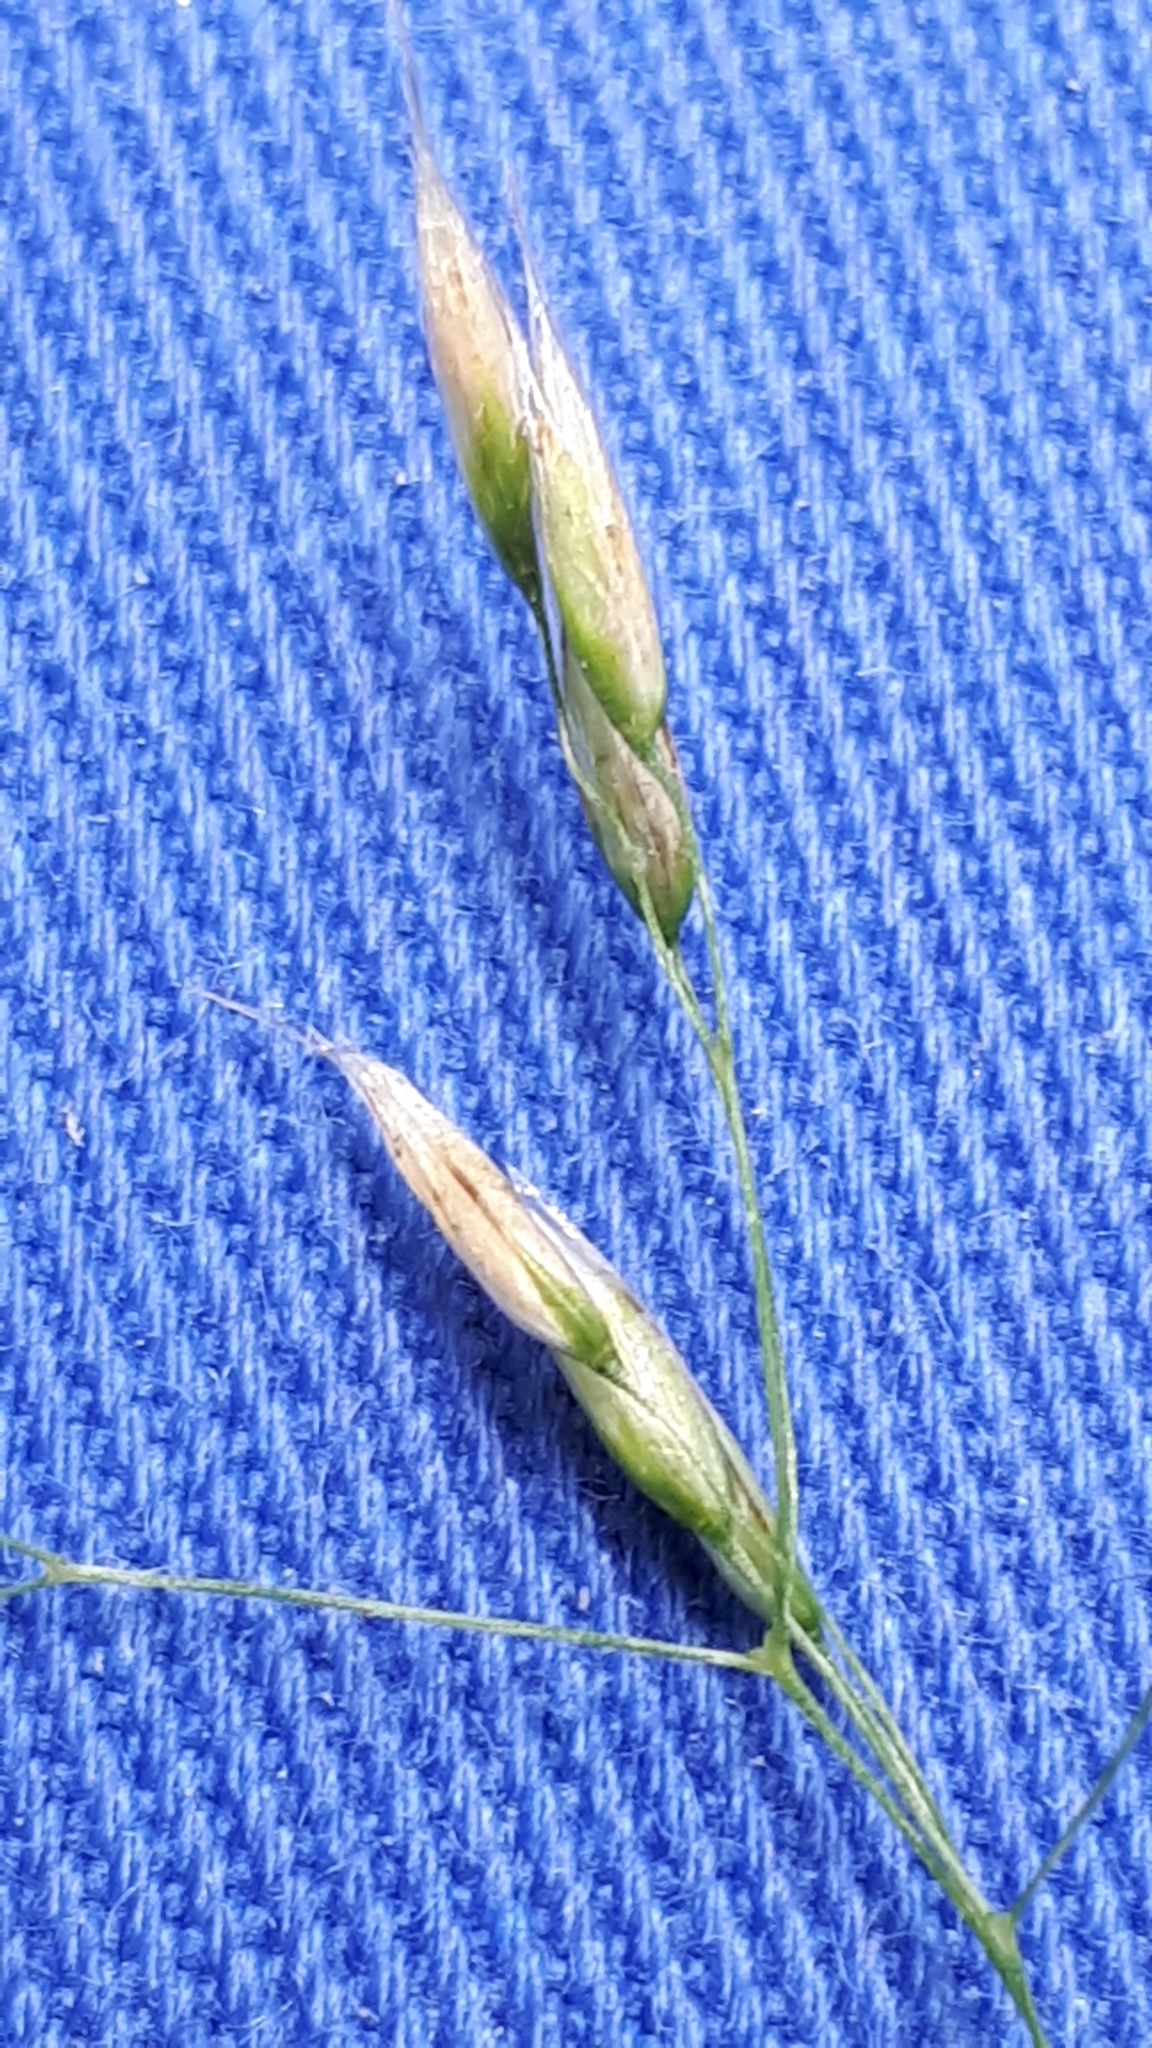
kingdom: Plantae
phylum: Tracheophyta
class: Liliopsida
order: Poales
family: Poaceae
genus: Avenella
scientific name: Avenella flexuosa
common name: Wavy hairgrass
